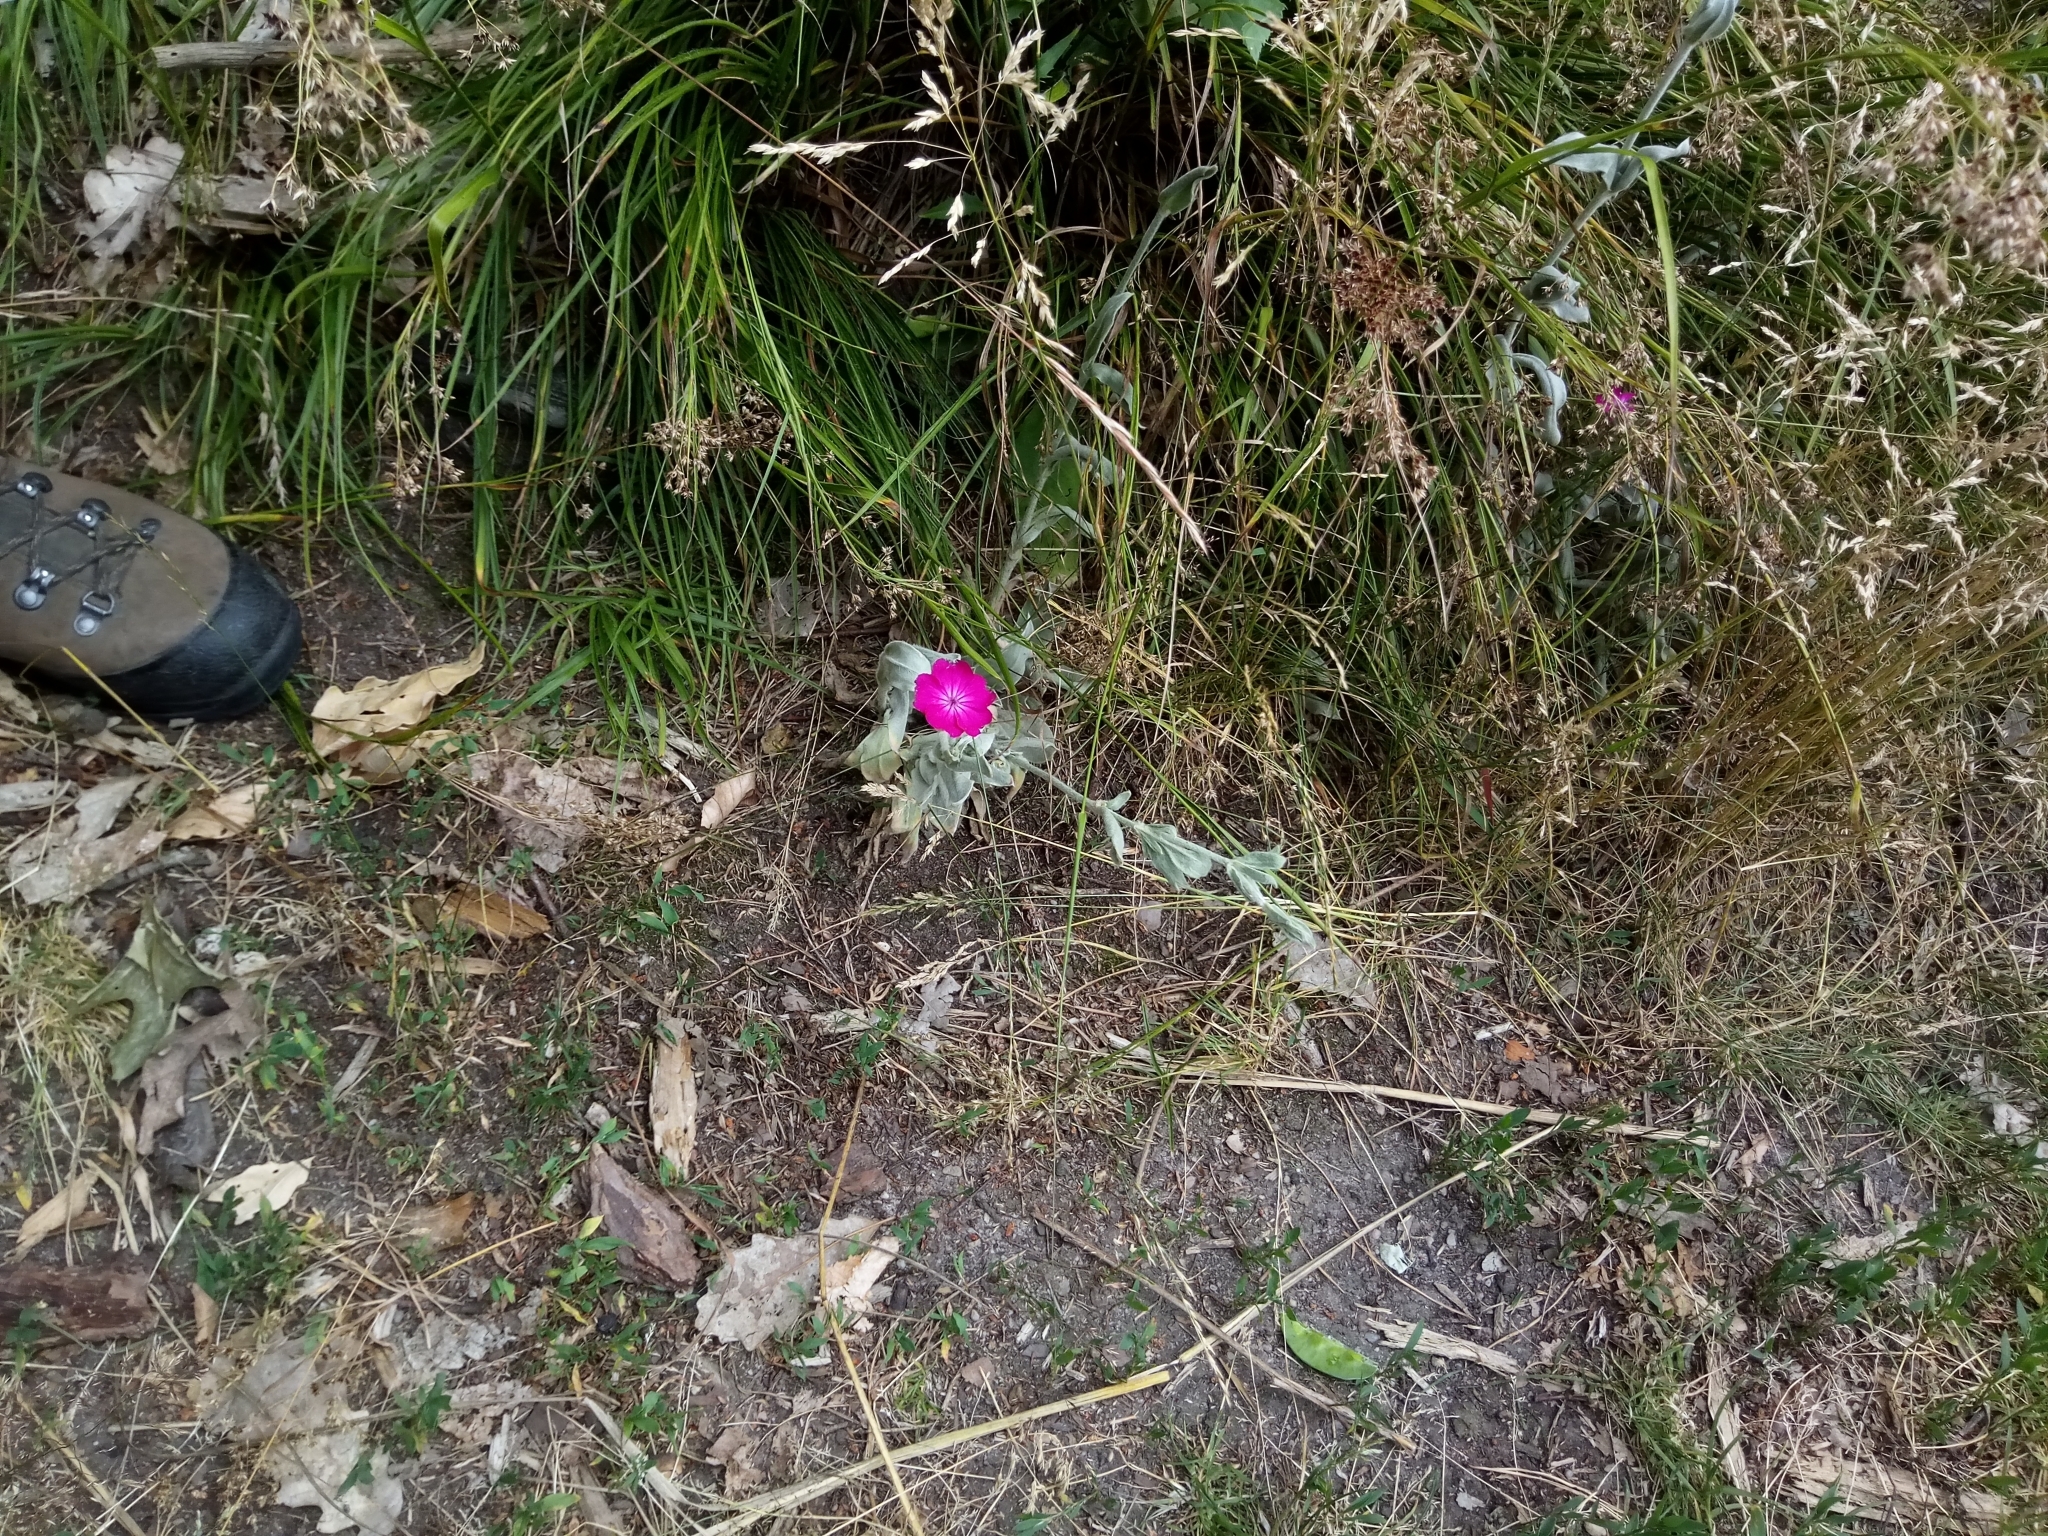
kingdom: Plantae
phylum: Tracheophyta
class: Magnoliopsida
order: Caryophyllales
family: Caryophyllaceae
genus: Silene
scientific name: Silene coronaria
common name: Rose campion
